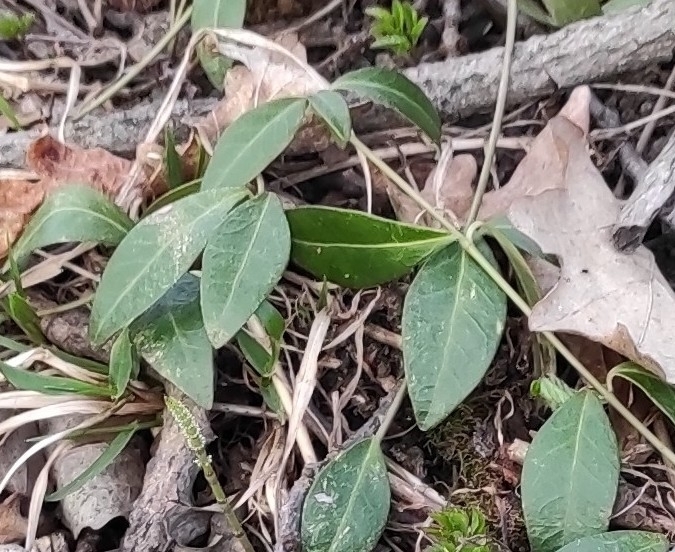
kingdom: Plantae
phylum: Tracheophyta
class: Magnoliopsida
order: Gentianales
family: Apocynaceae
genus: Vinca
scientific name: Vinca minor
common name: Lesser periwinkle
